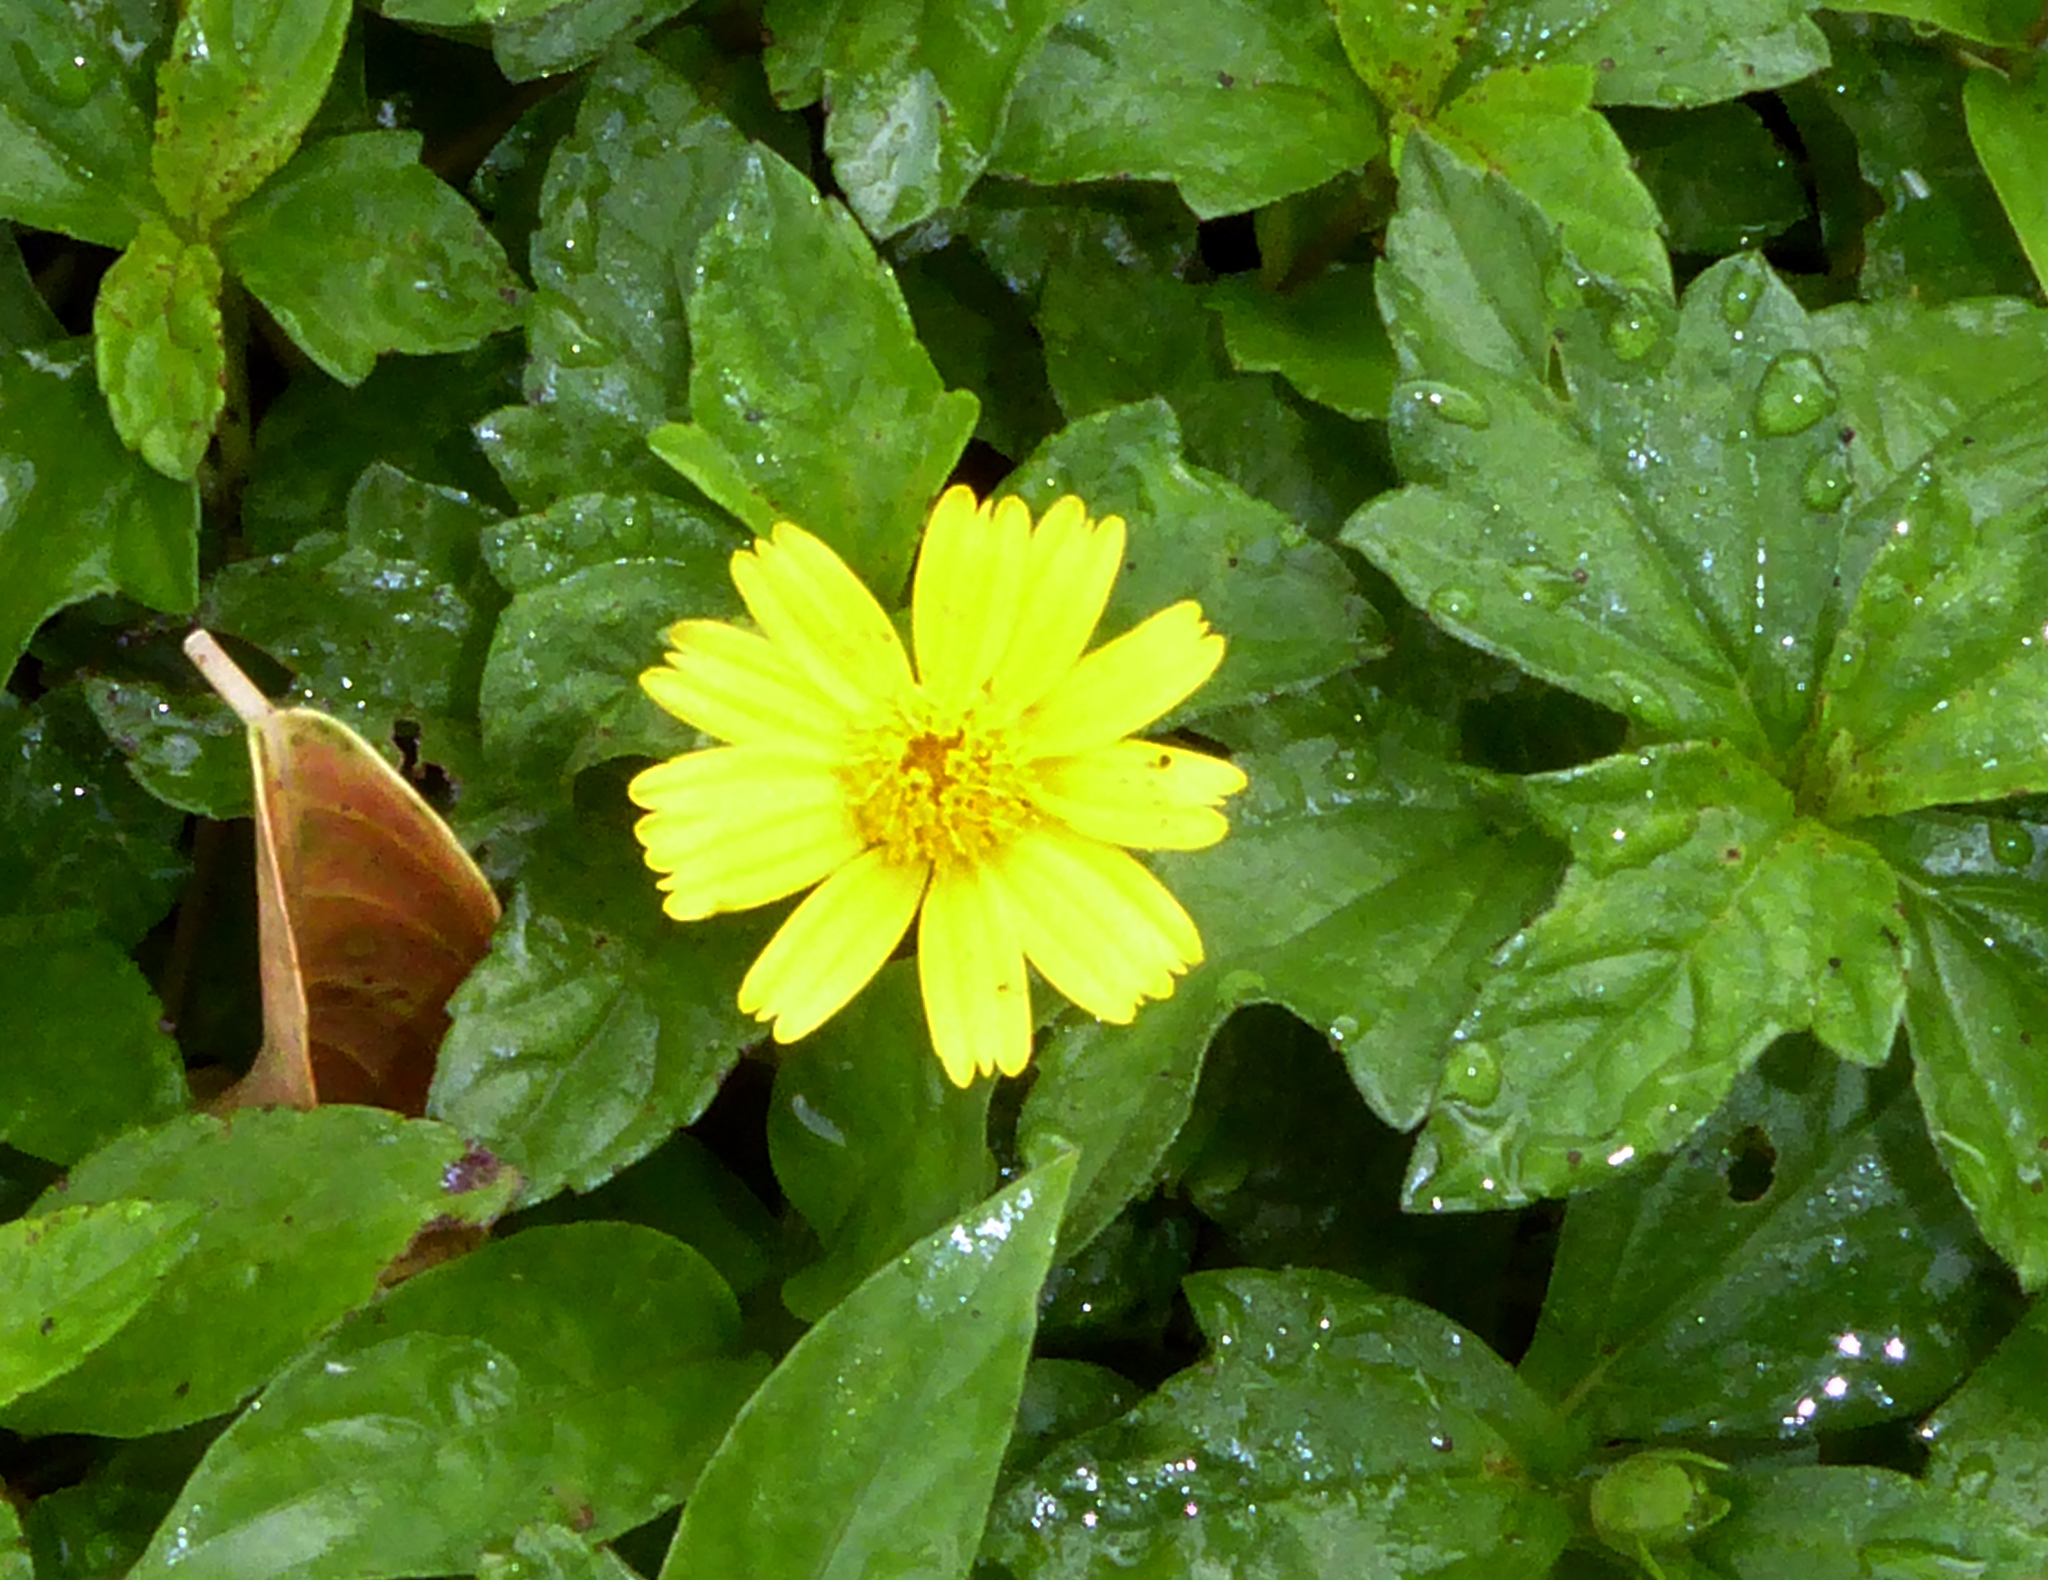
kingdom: Plantae
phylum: Tracheophyta
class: Magnoliopsida
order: Asterales
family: Asteraceae
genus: Sphagneticola
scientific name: Sphagneticola trilobata
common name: Bay biscayne creeping-oxeye
